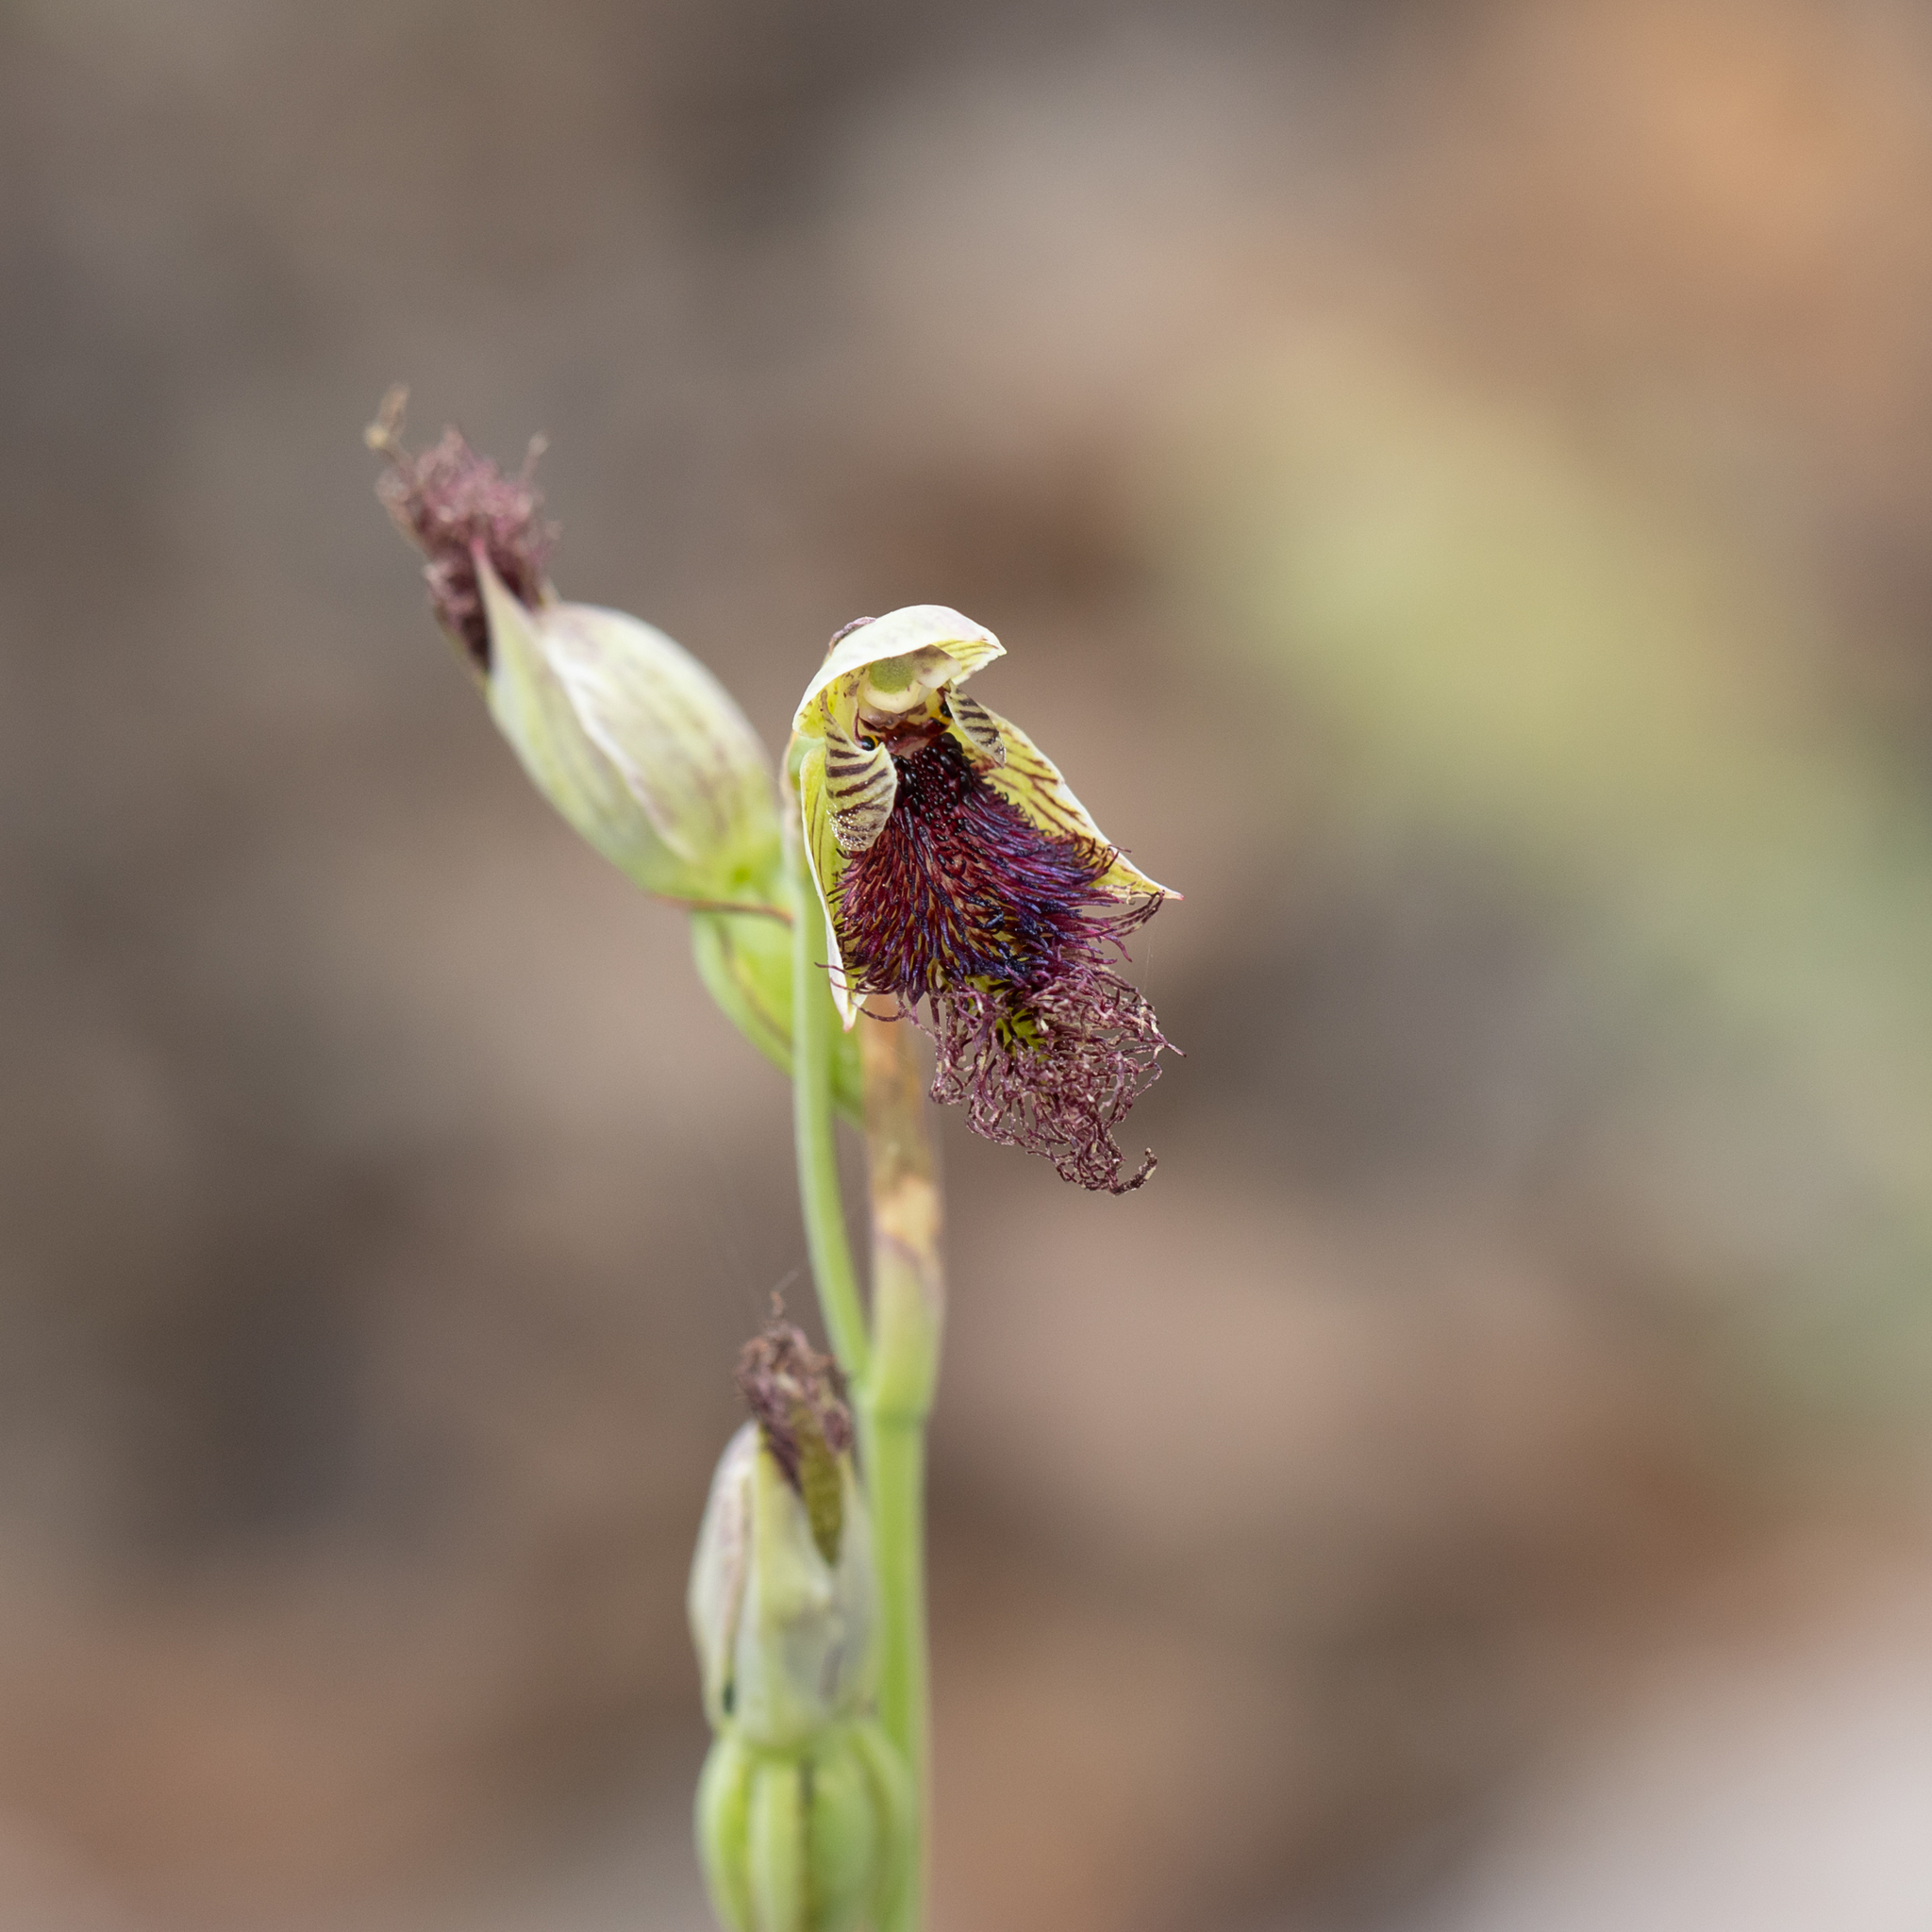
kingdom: Plantae
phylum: Tracheophyta
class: Liliopsida
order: Asparagales
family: Orchidaceae
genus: Calochilus
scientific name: Calochilus stramenicola
